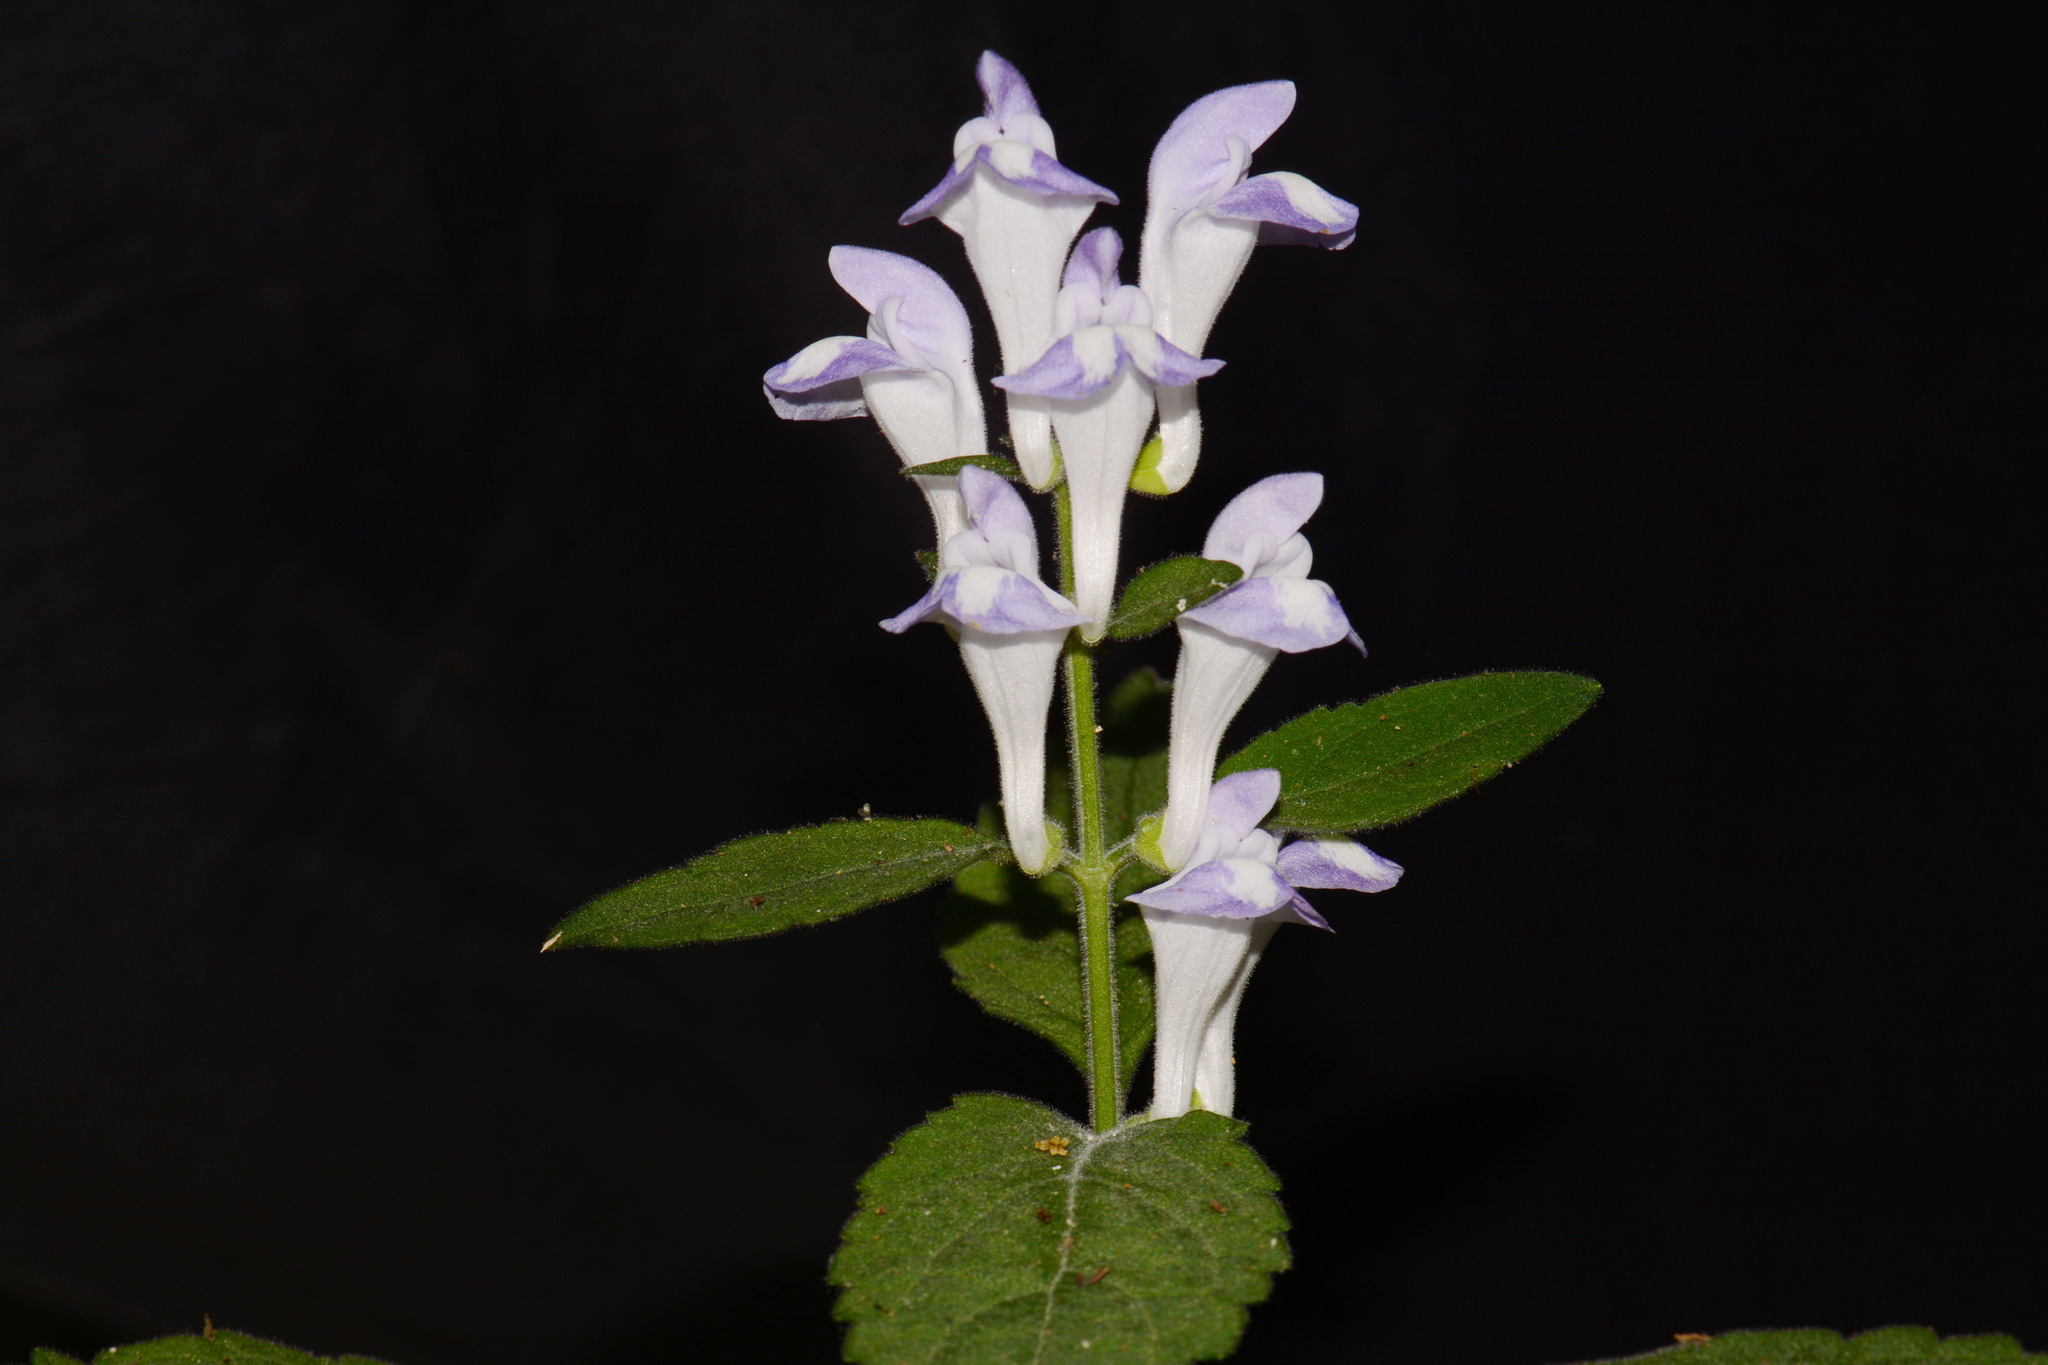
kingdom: Plantae
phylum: Tracheophyta
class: Magnoliopsida
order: Lamiales
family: Lamiaceae
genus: Scutellaria
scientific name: Scutellaria montana
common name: Large-flower skullcap
